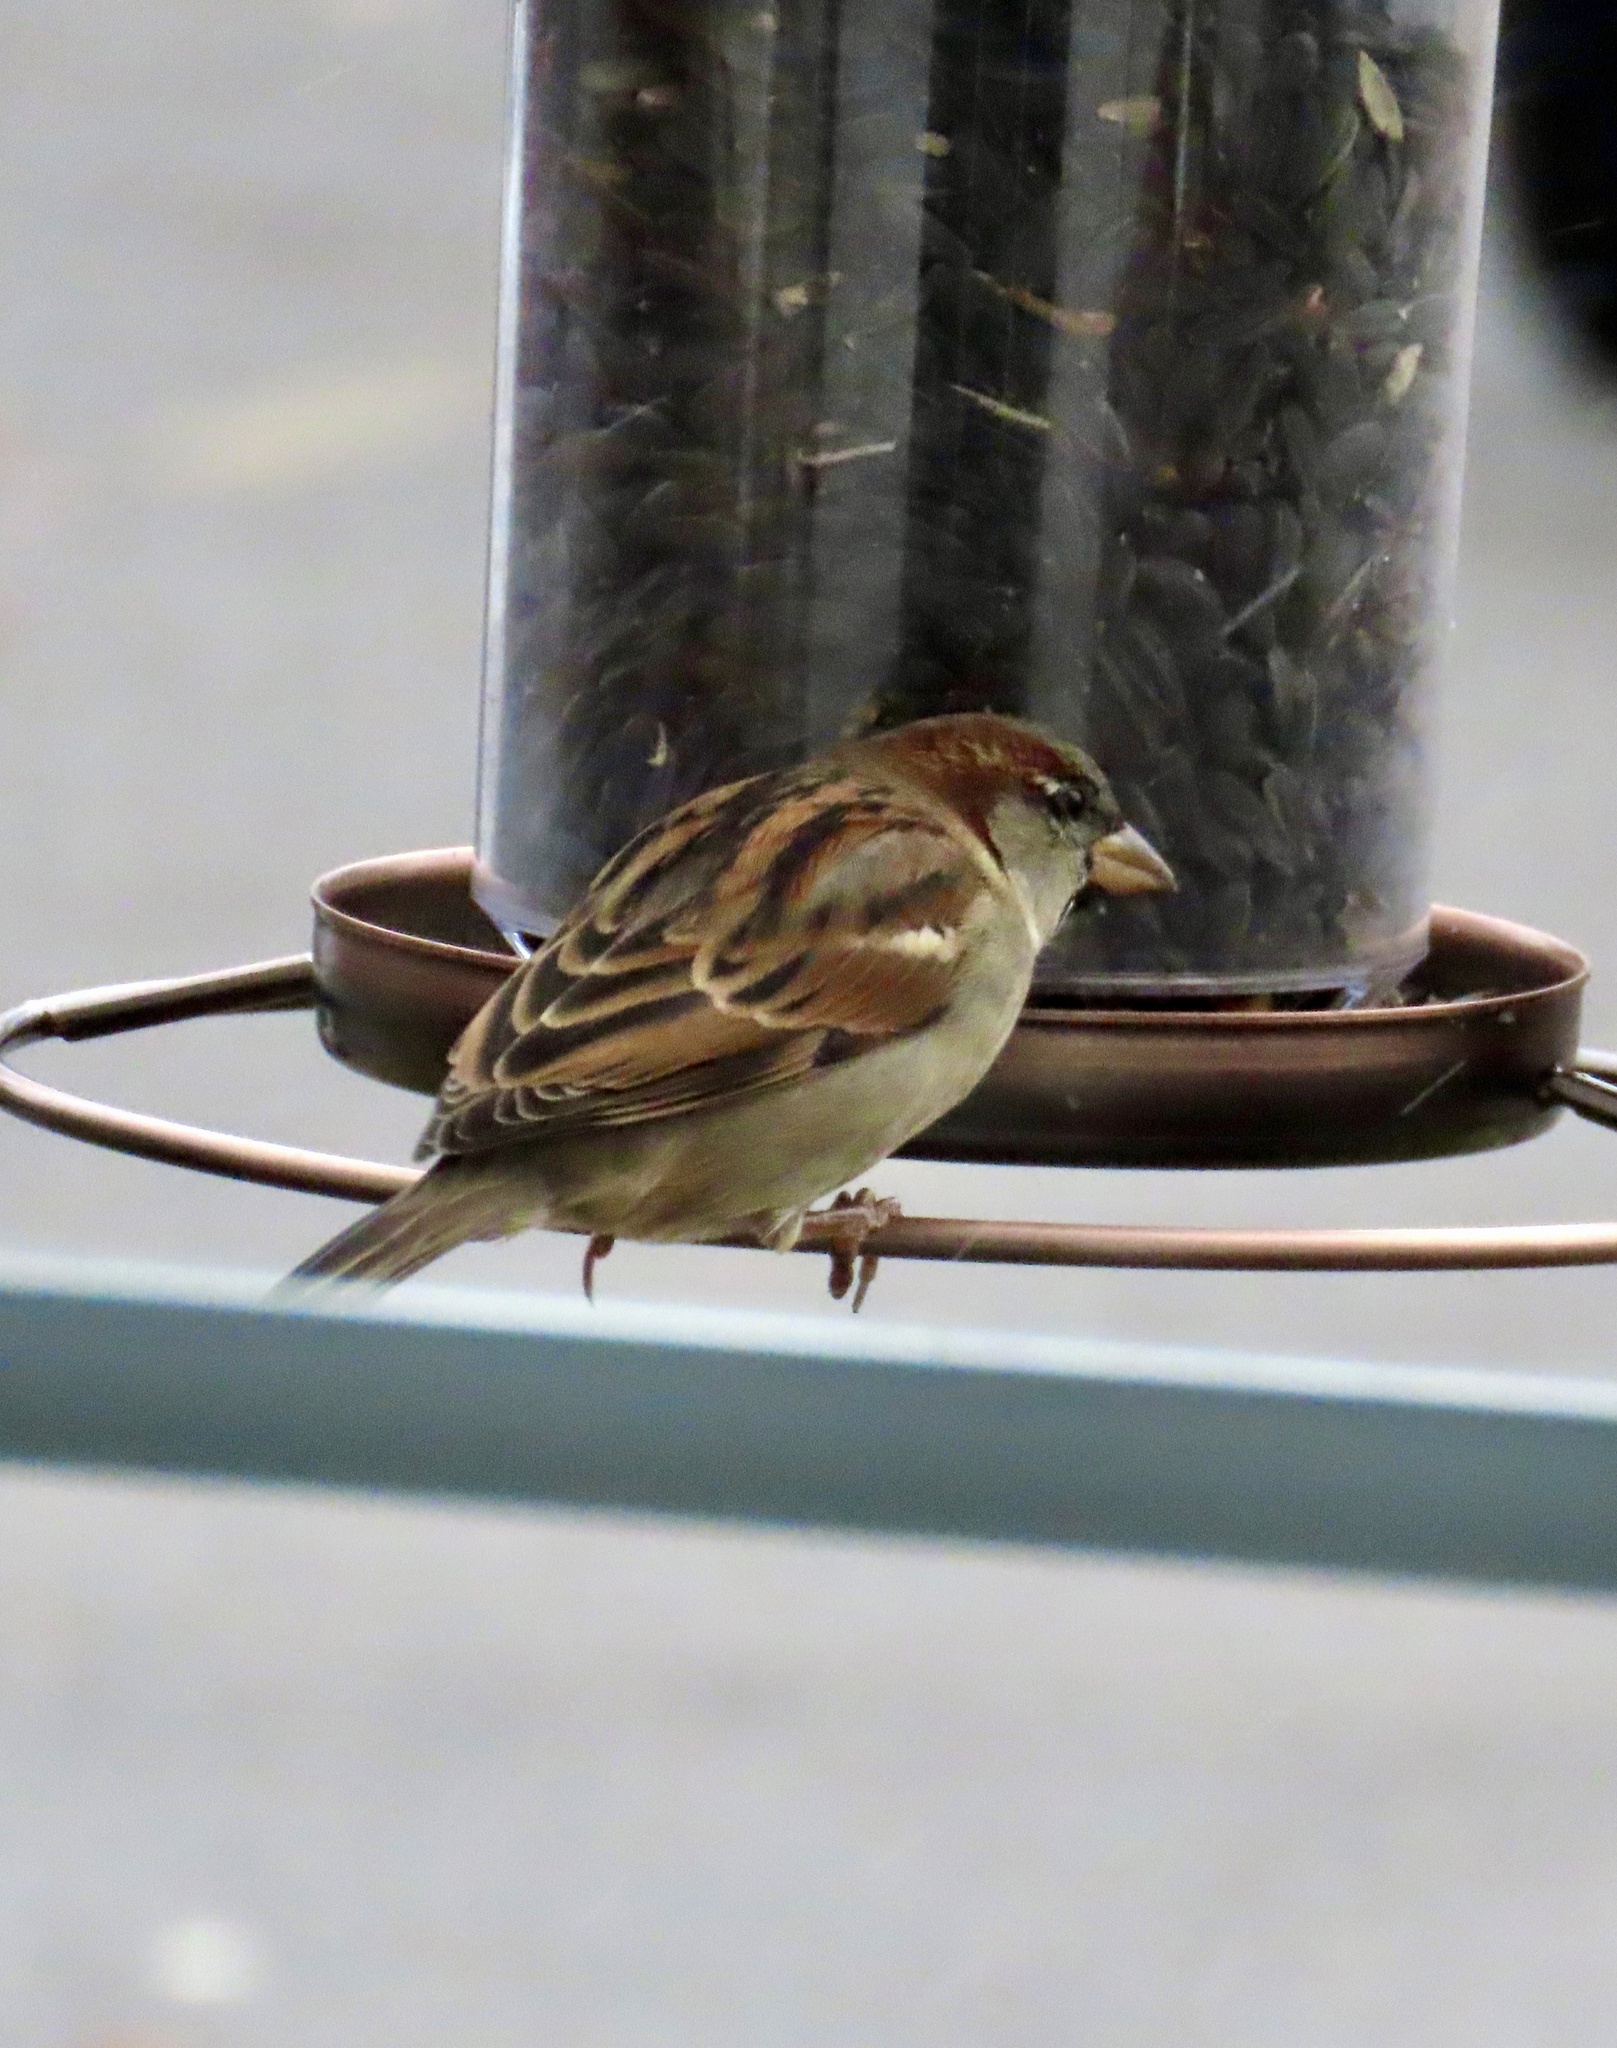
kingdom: Animalia
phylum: Chordata
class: Aves
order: Passeriformes
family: Passeridae
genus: Passer
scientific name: Passer domesticus
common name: House sparrow
